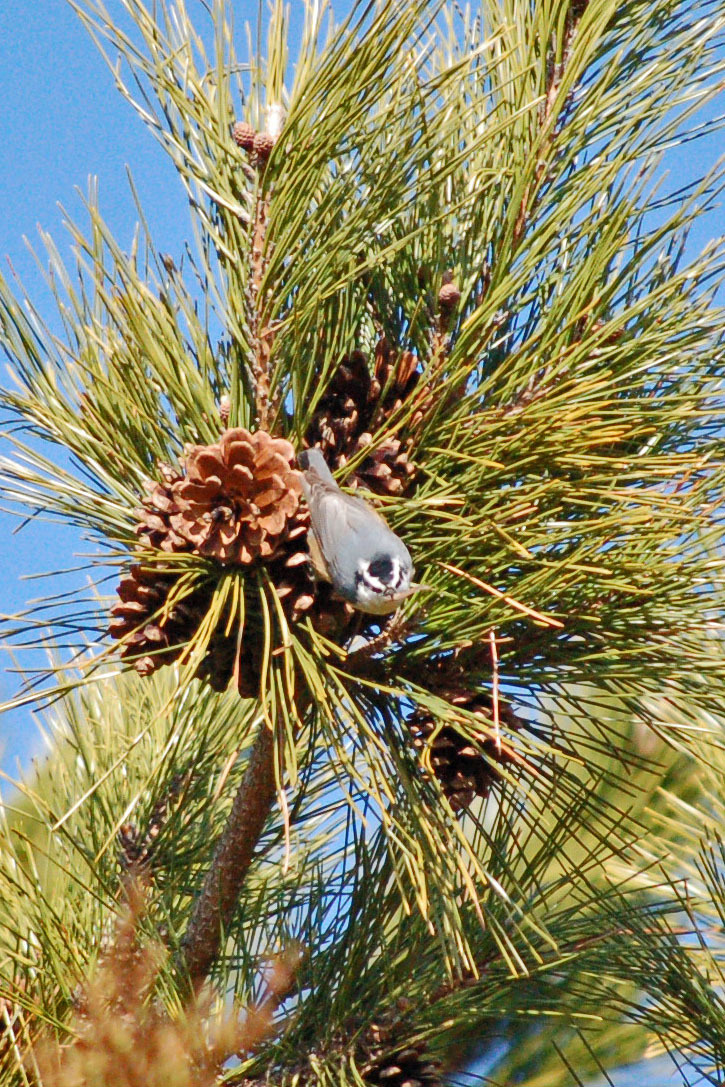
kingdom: Animalia
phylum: Chordata
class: Aves
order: Passeriformes
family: Sittidae
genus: Sitta
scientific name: Sitta canadensis
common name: Red-breasted nuthatch
